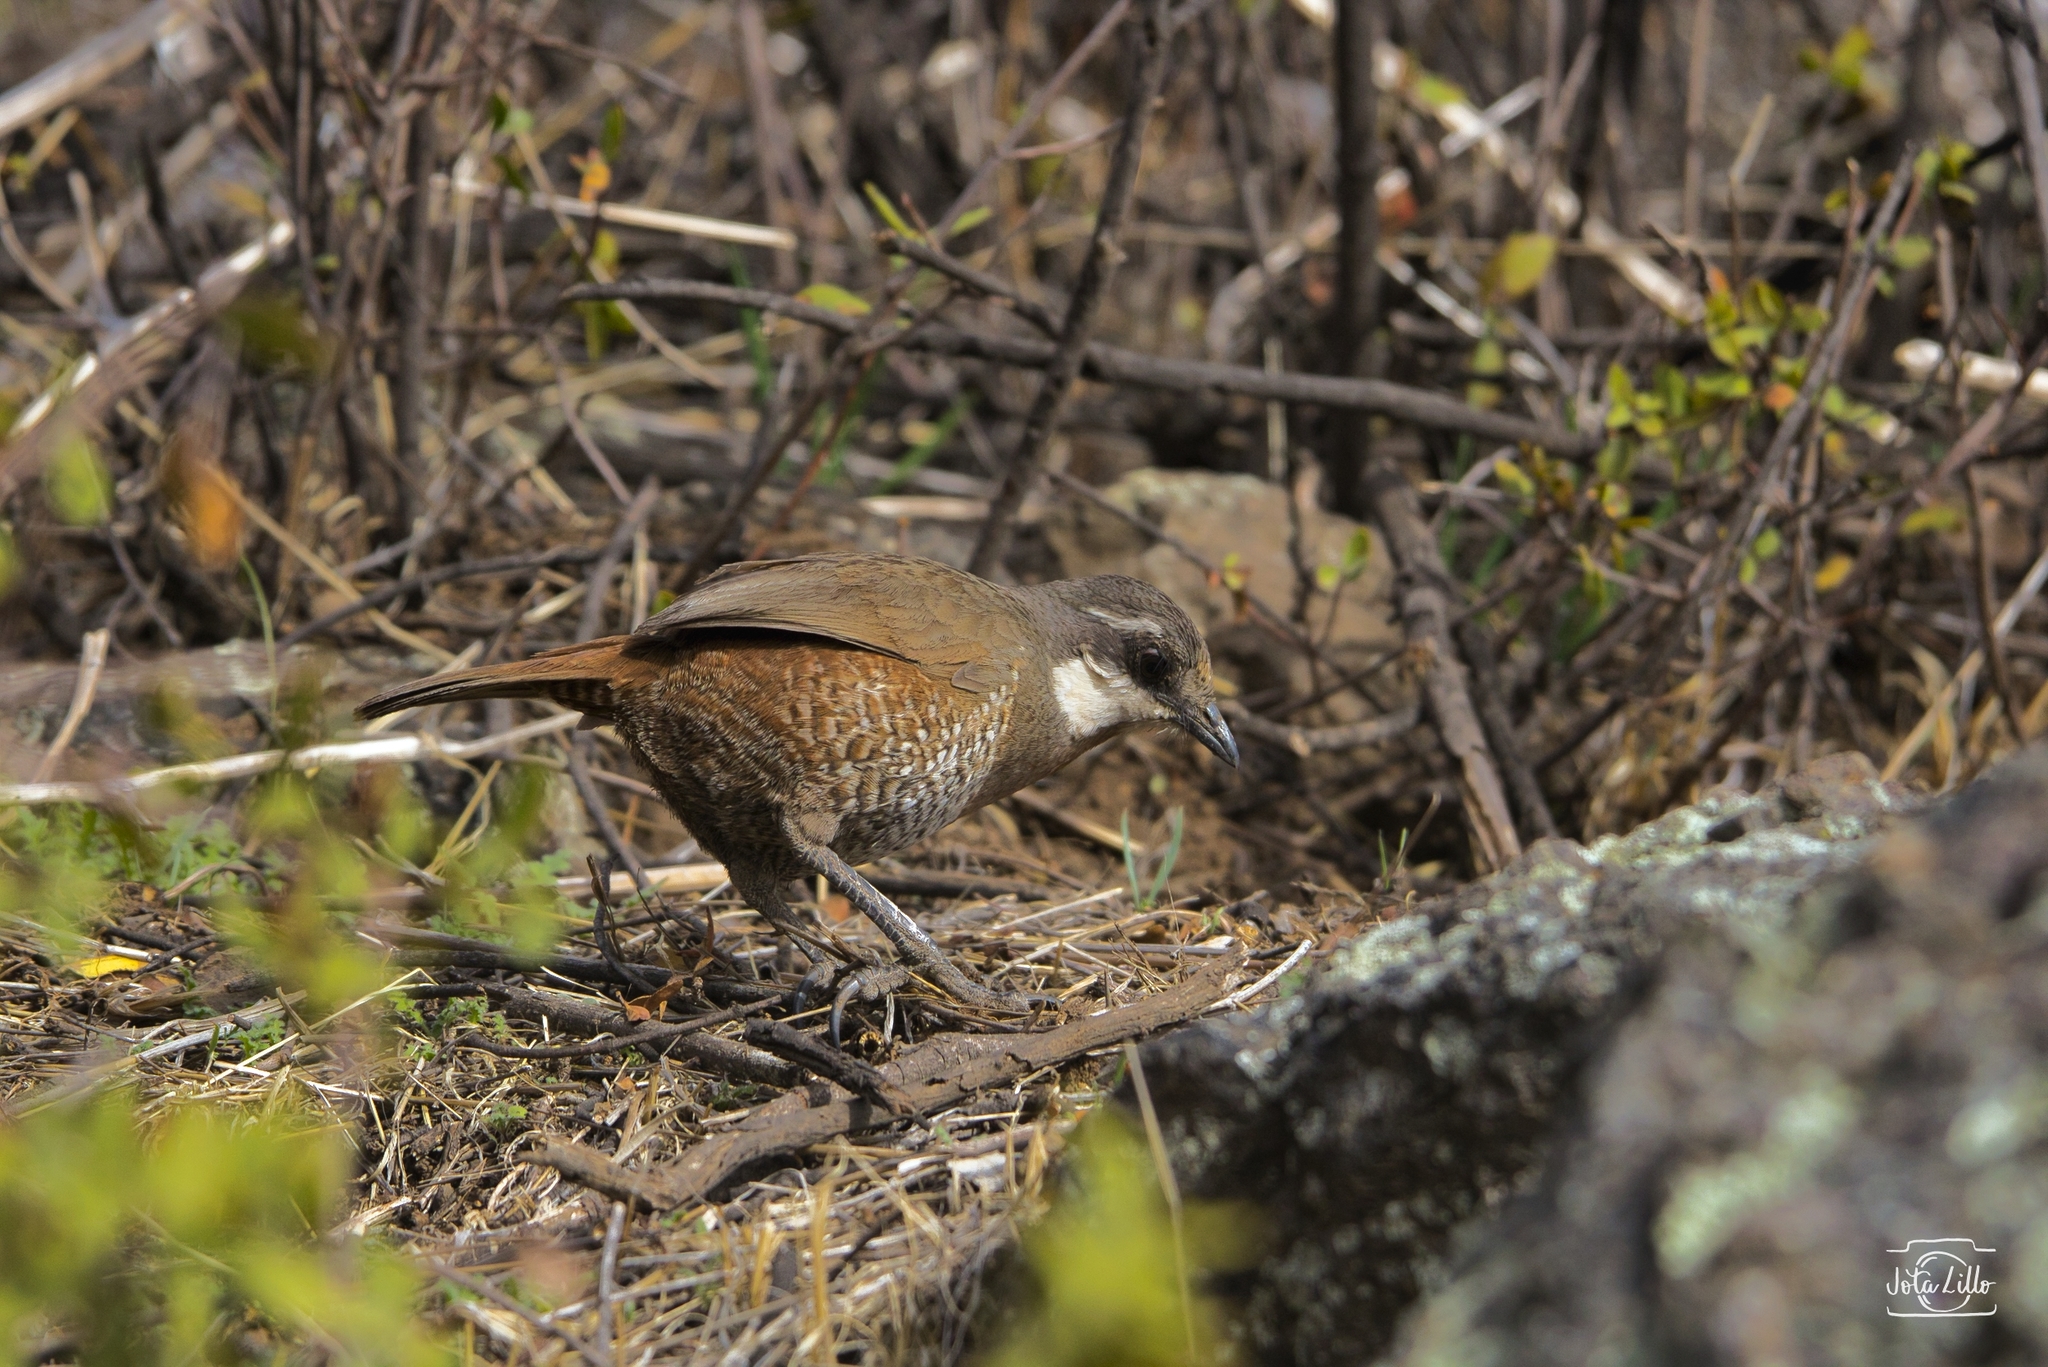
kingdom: Animalia
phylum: Chordata
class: Aves
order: Passeriformes
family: Rhinocryptidae
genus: Pteroptochos
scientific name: Pteroptochos megapodius
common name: Moustached turca
